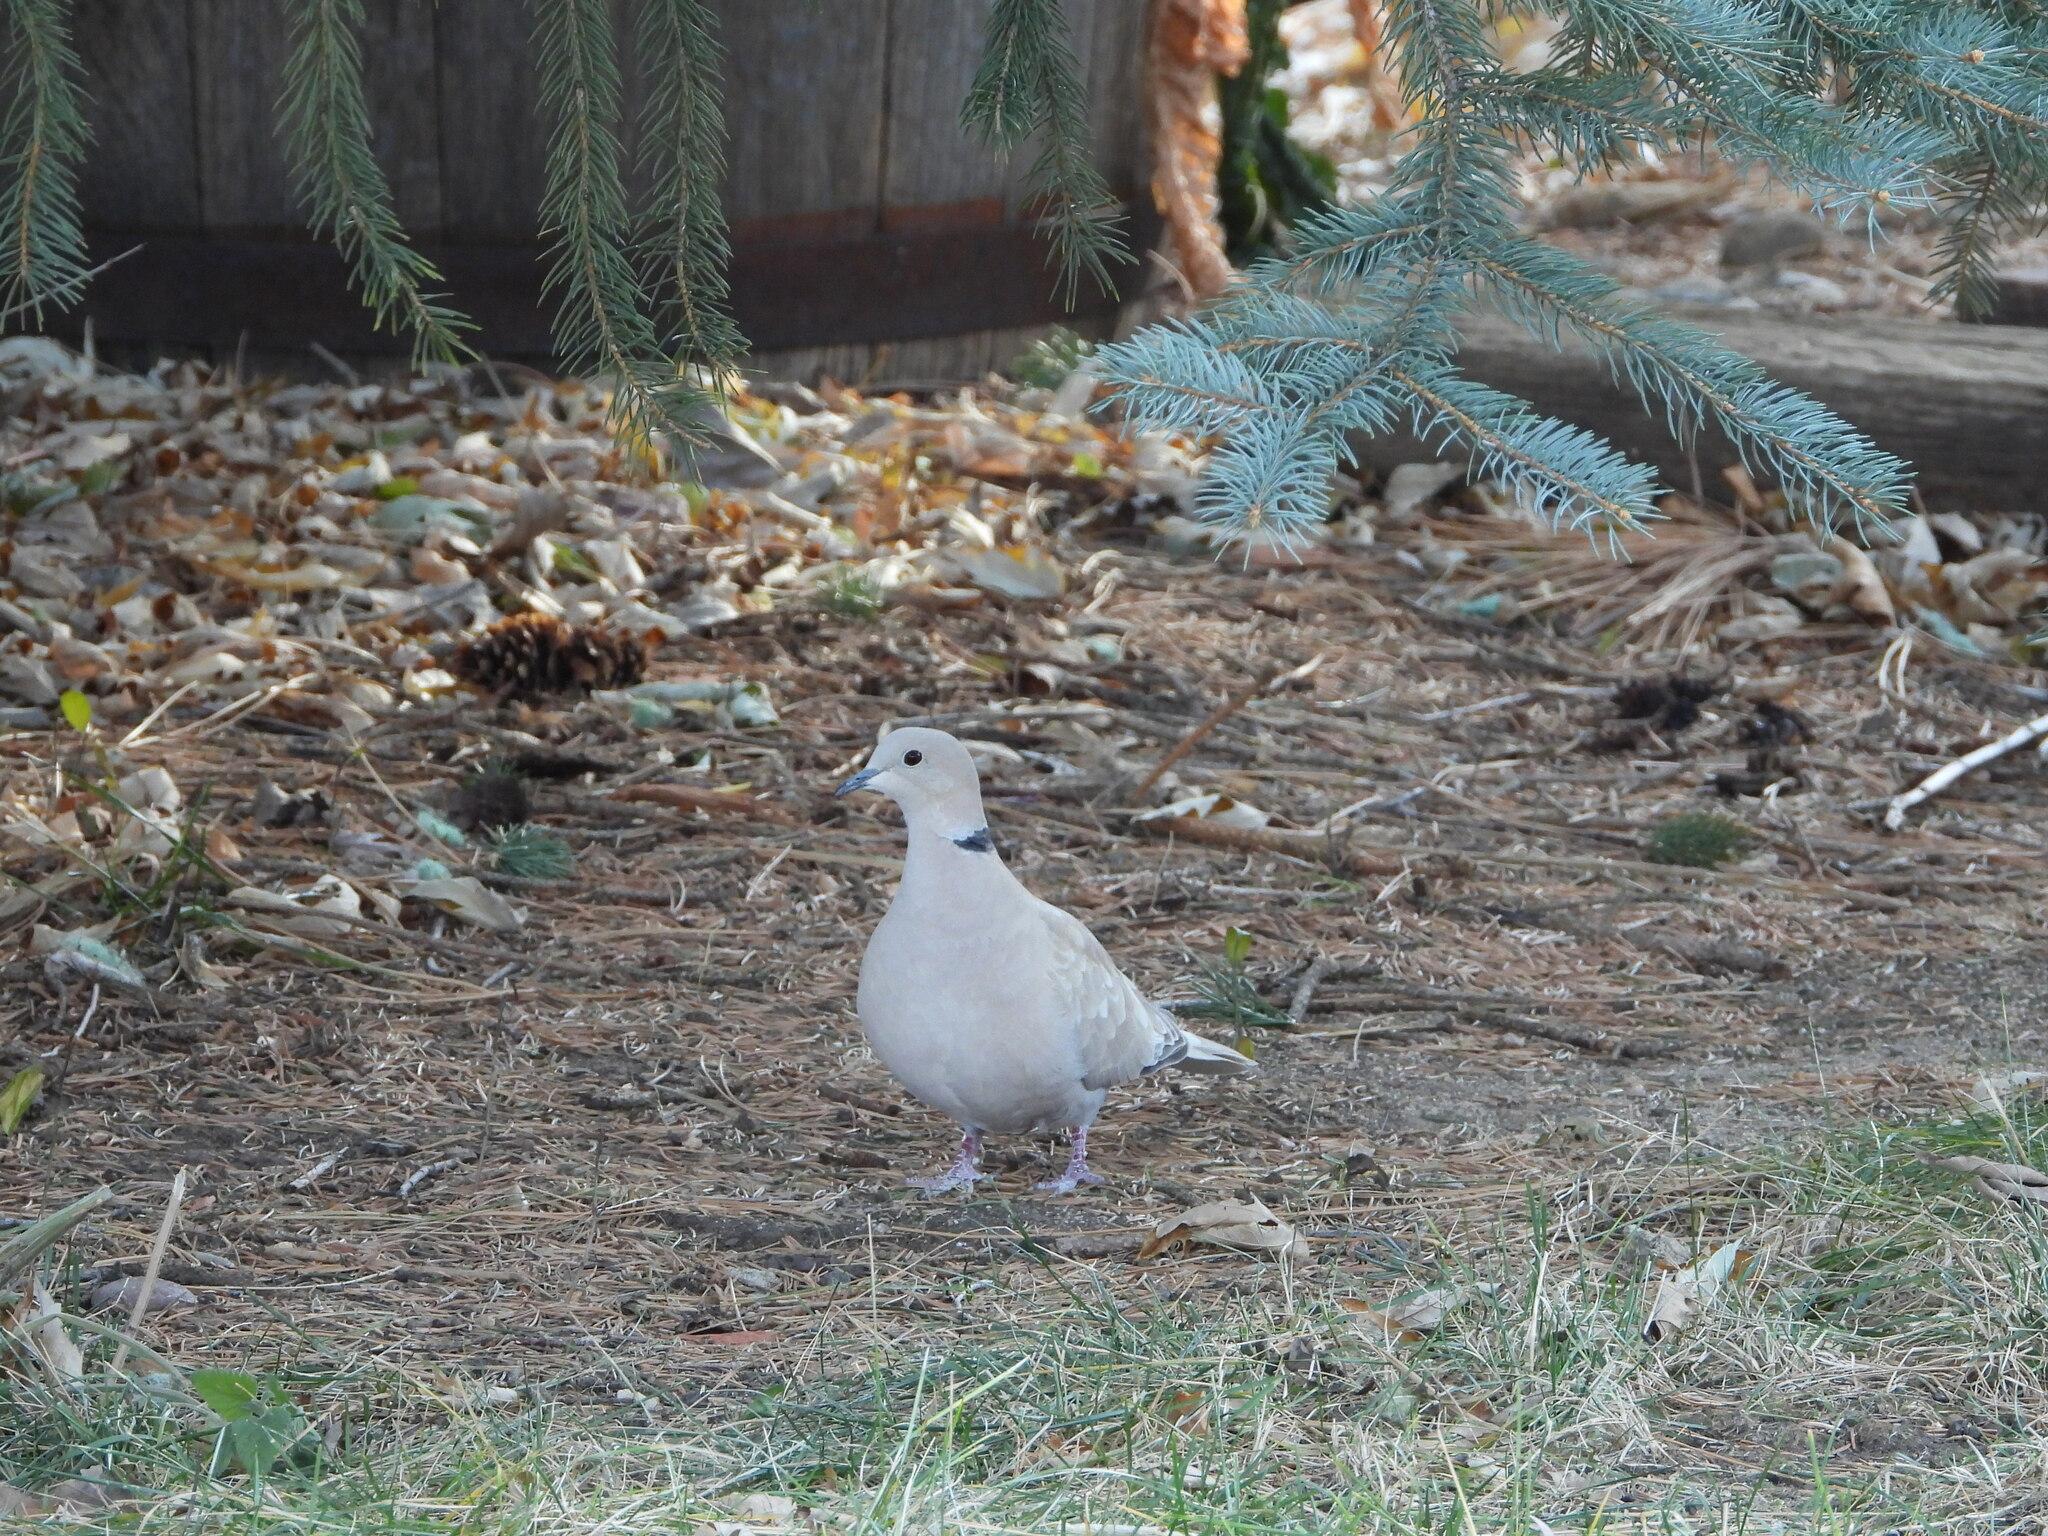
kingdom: Animalia
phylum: Chordata
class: Aves
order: Columbiformes
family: Columbidae
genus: Streptopelia
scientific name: Streptopelia decaocto
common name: Eurasian collared dove
